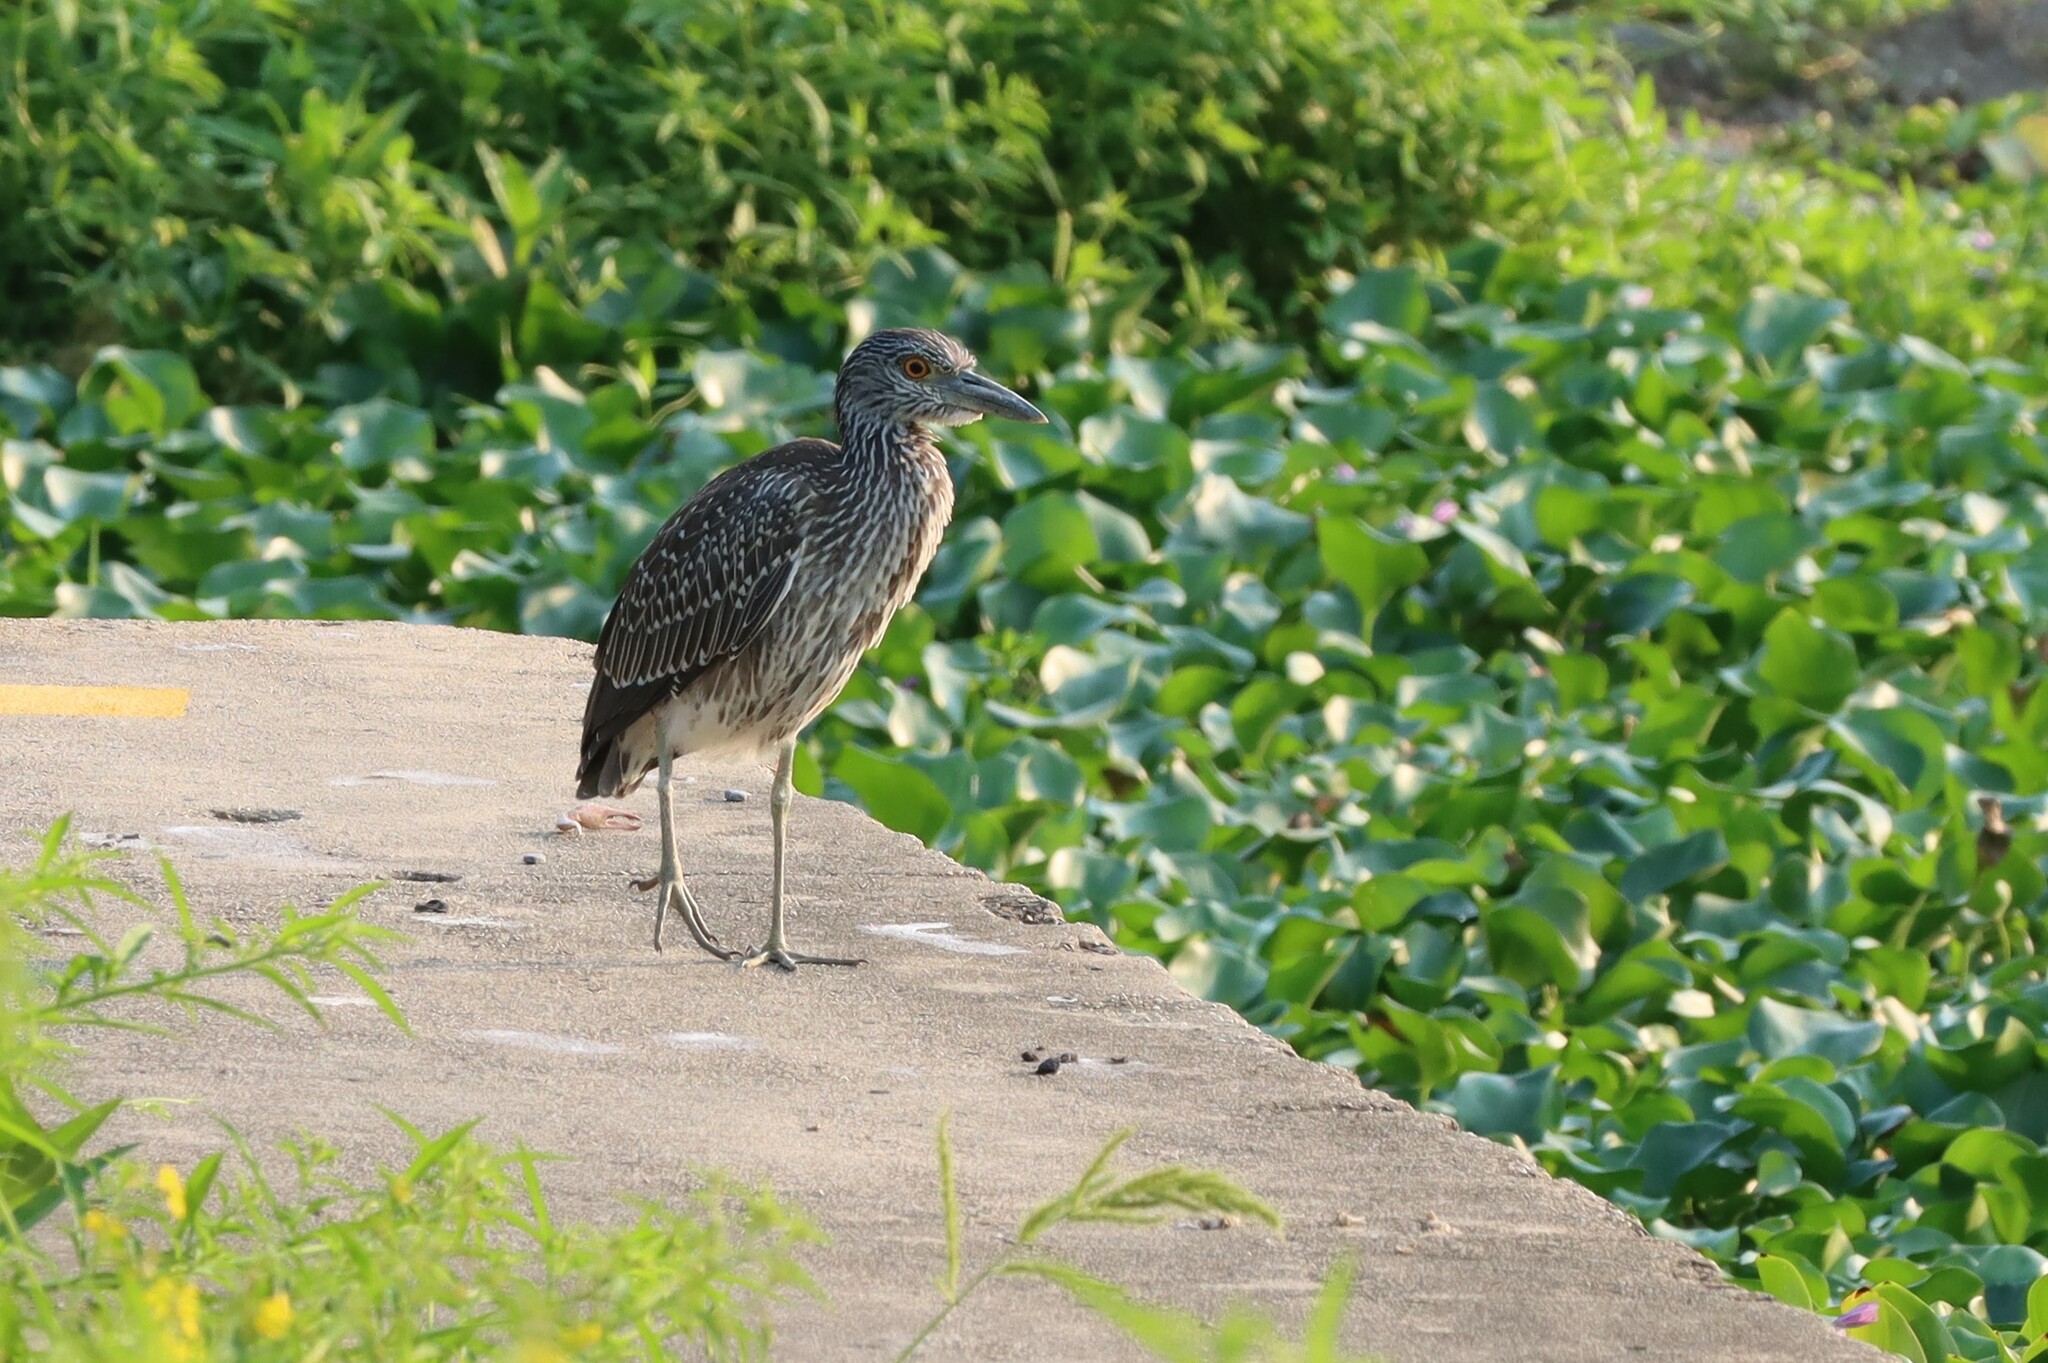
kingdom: Animalia
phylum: Chordata
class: Aves
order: Pelecaniformes
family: Ardeidae
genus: Nyctanassa
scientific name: Nyctanassa violacea
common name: Yellow-crowned night heron
